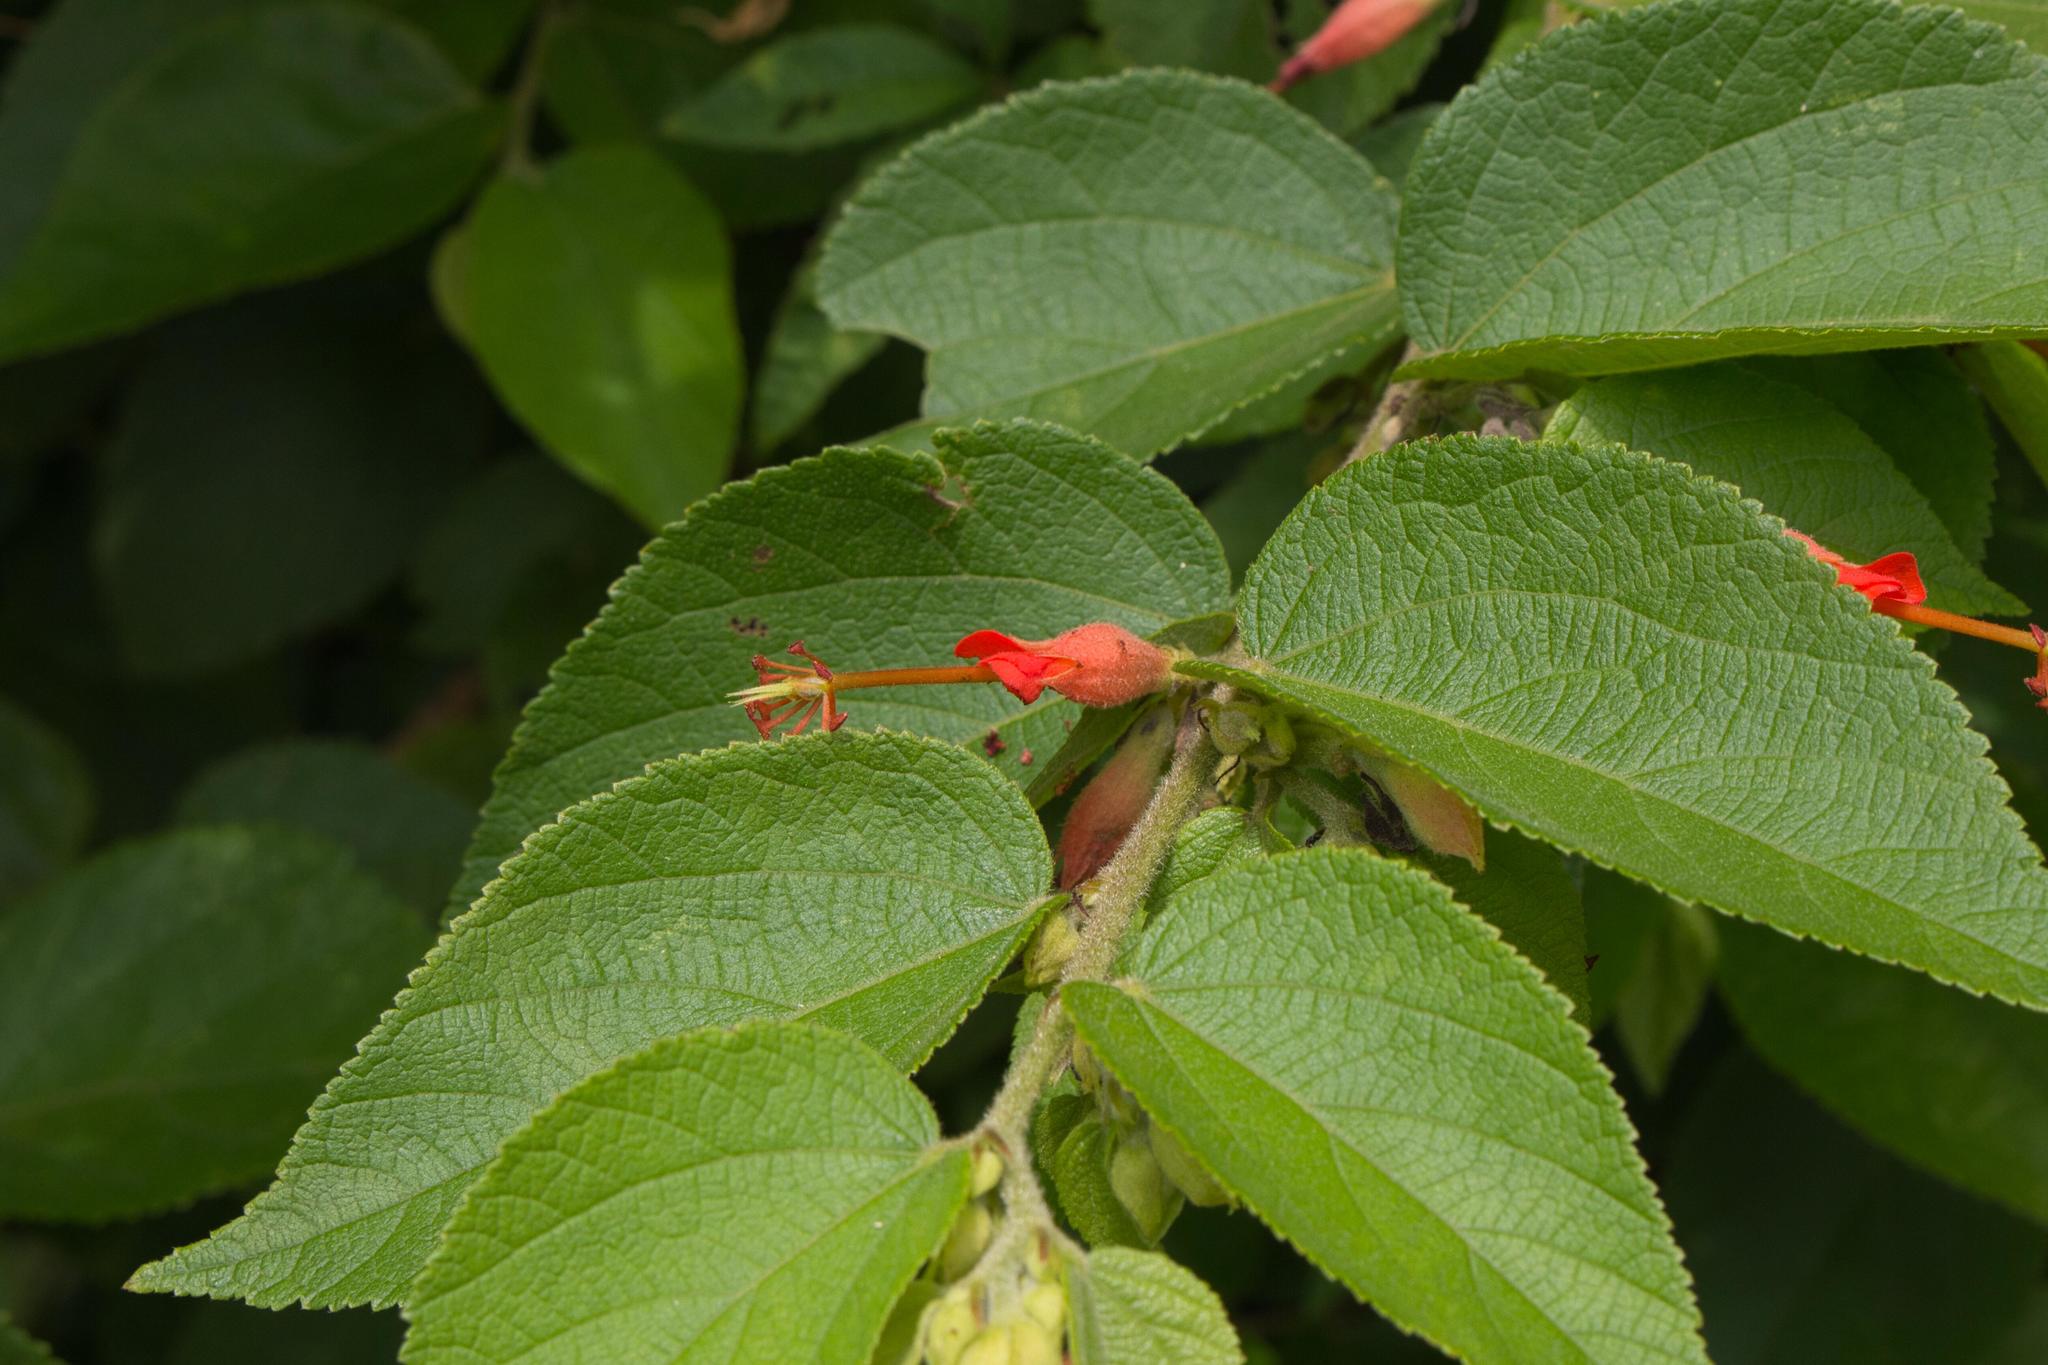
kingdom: Plantae
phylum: Tracheophyta
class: Magnoliopsida
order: Malvales
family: Malvaceae
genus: Helicteres
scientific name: Helicteres guazumifolia
